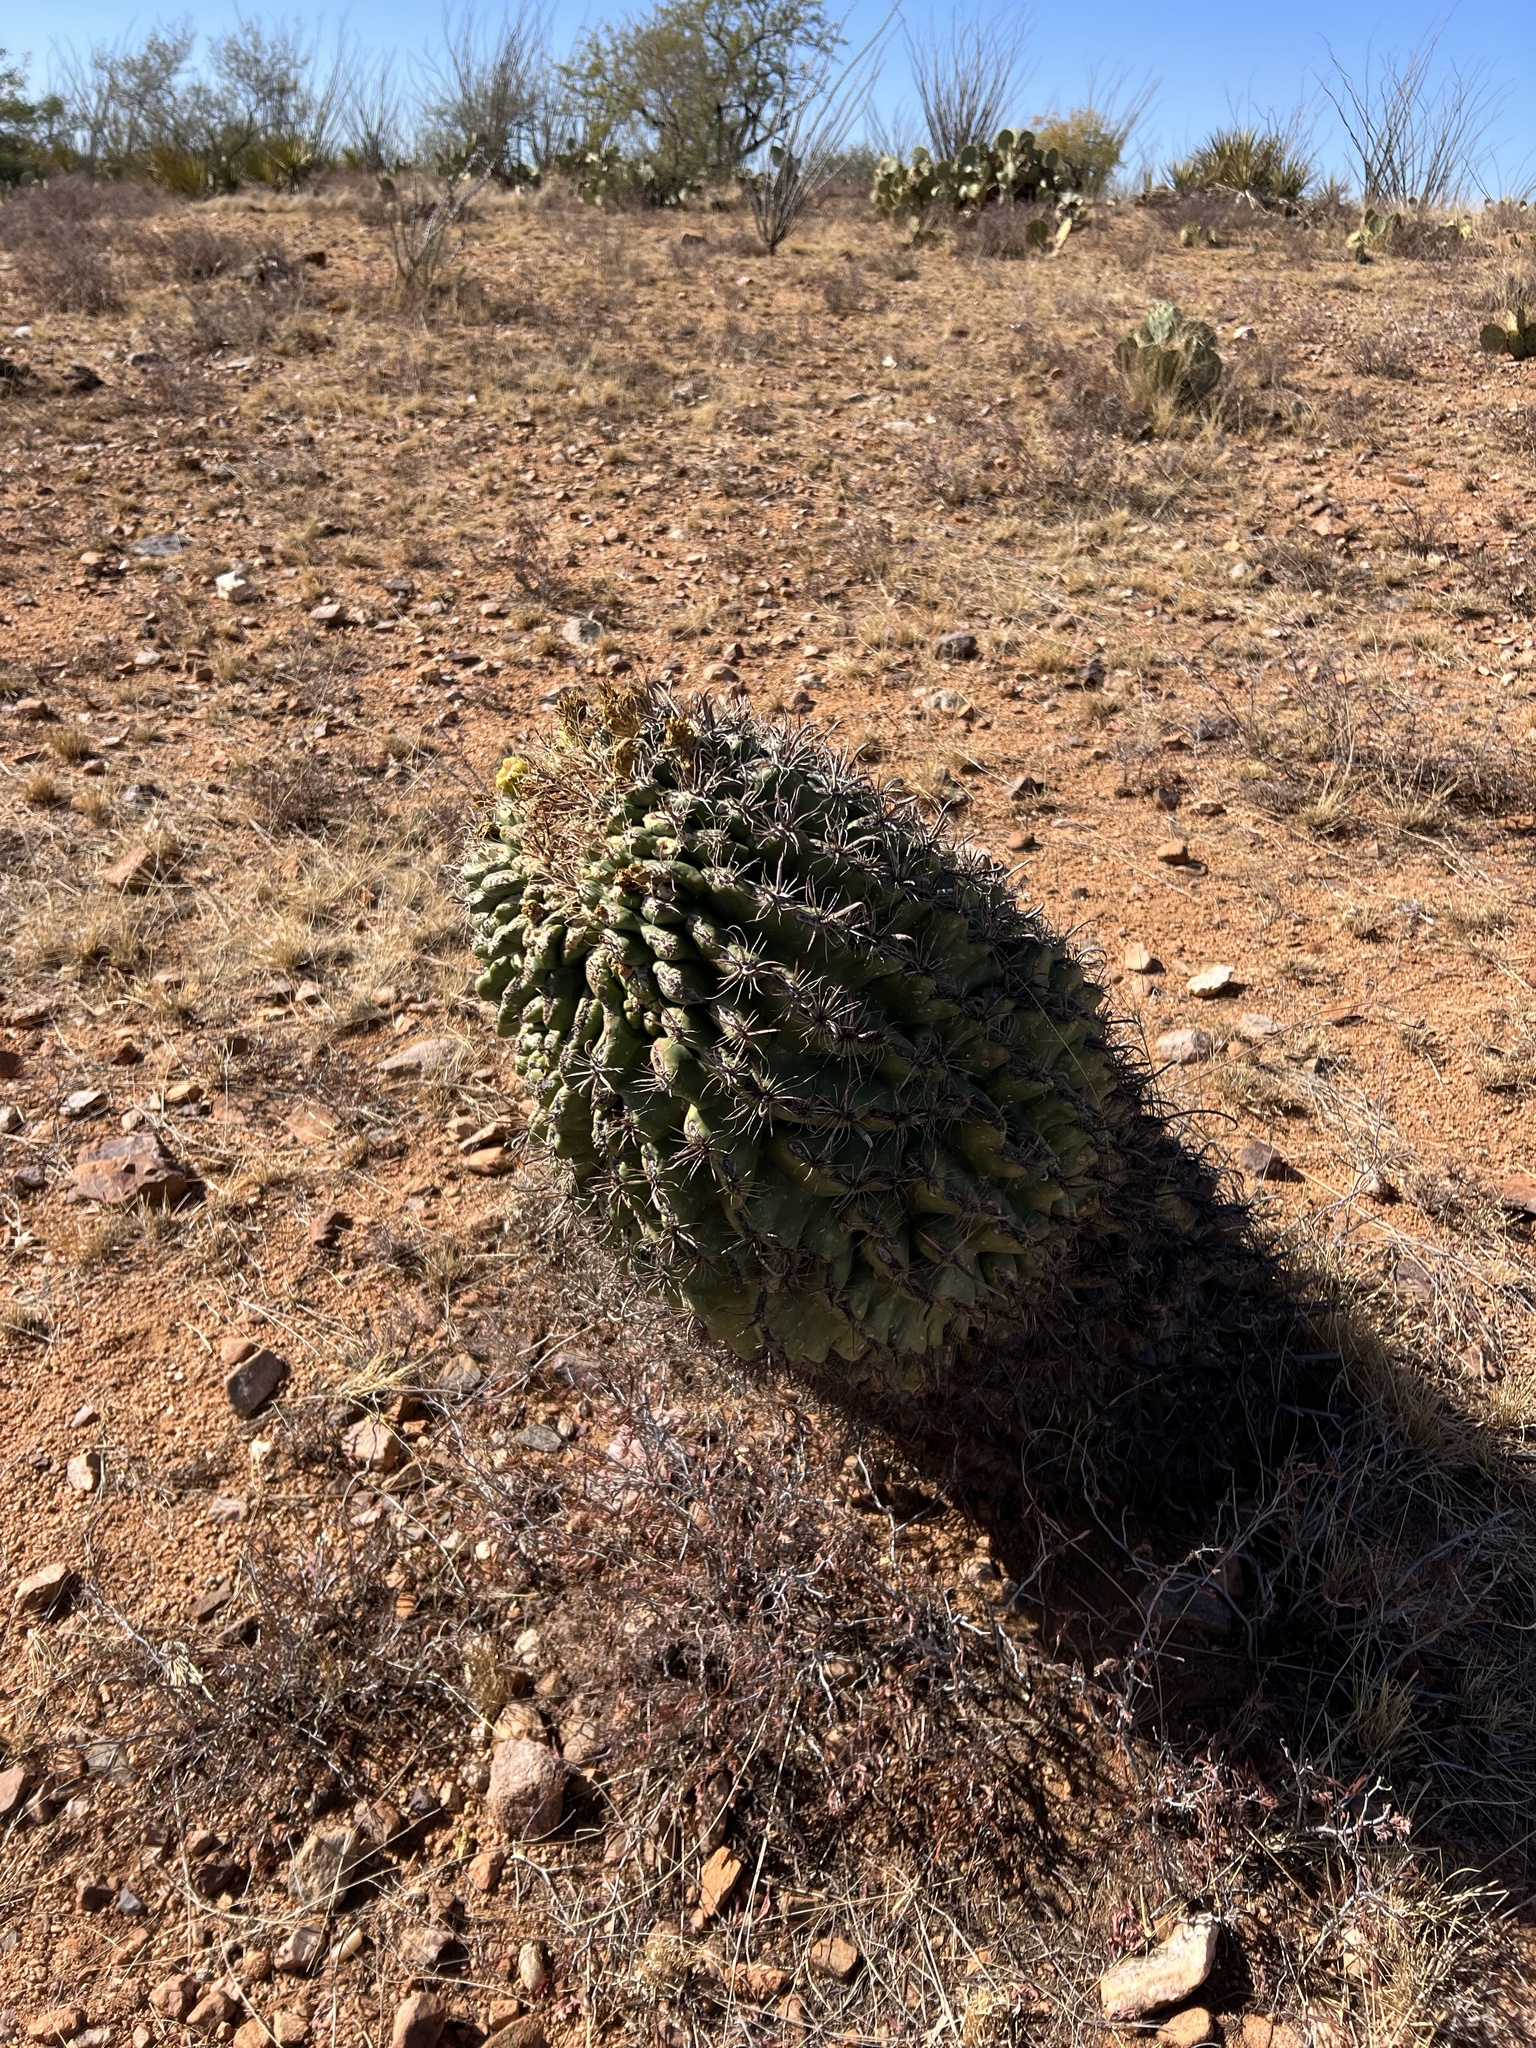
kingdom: Plantae
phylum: Tracheophyta
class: Magnoliopsida
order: Caryophyllales
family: Cactaceae
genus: Ferocactus
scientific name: Ferocactus wislizeni
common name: Candy barrel cactus
